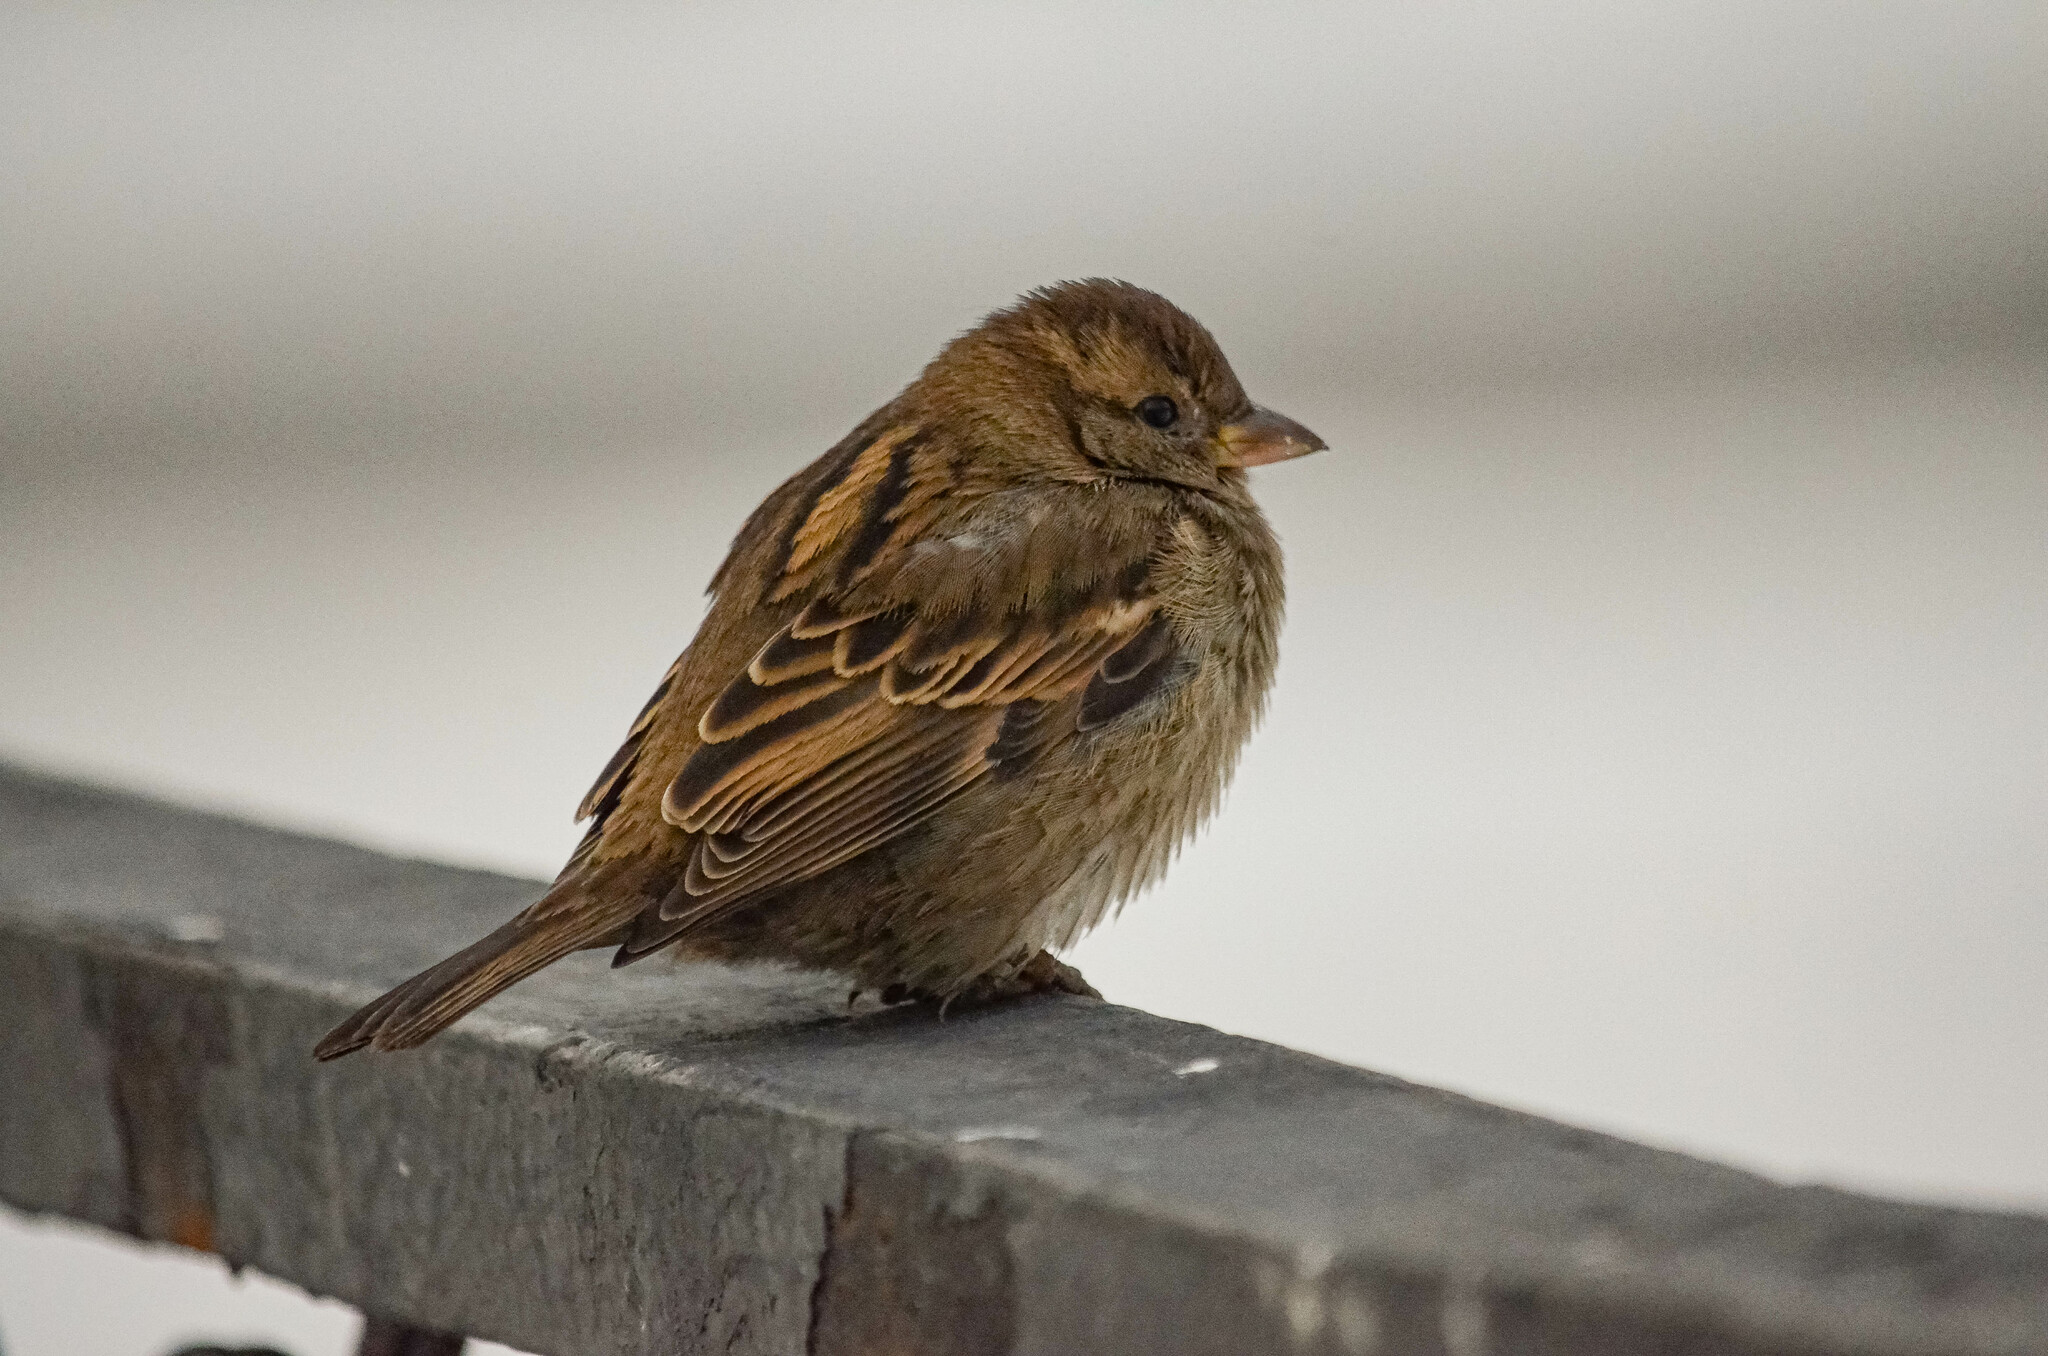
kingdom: Animalia
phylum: Chordata
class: Aves
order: Passeriformes
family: Passeridae
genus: Passer
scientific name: Passer domesticus
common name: House sparrow
